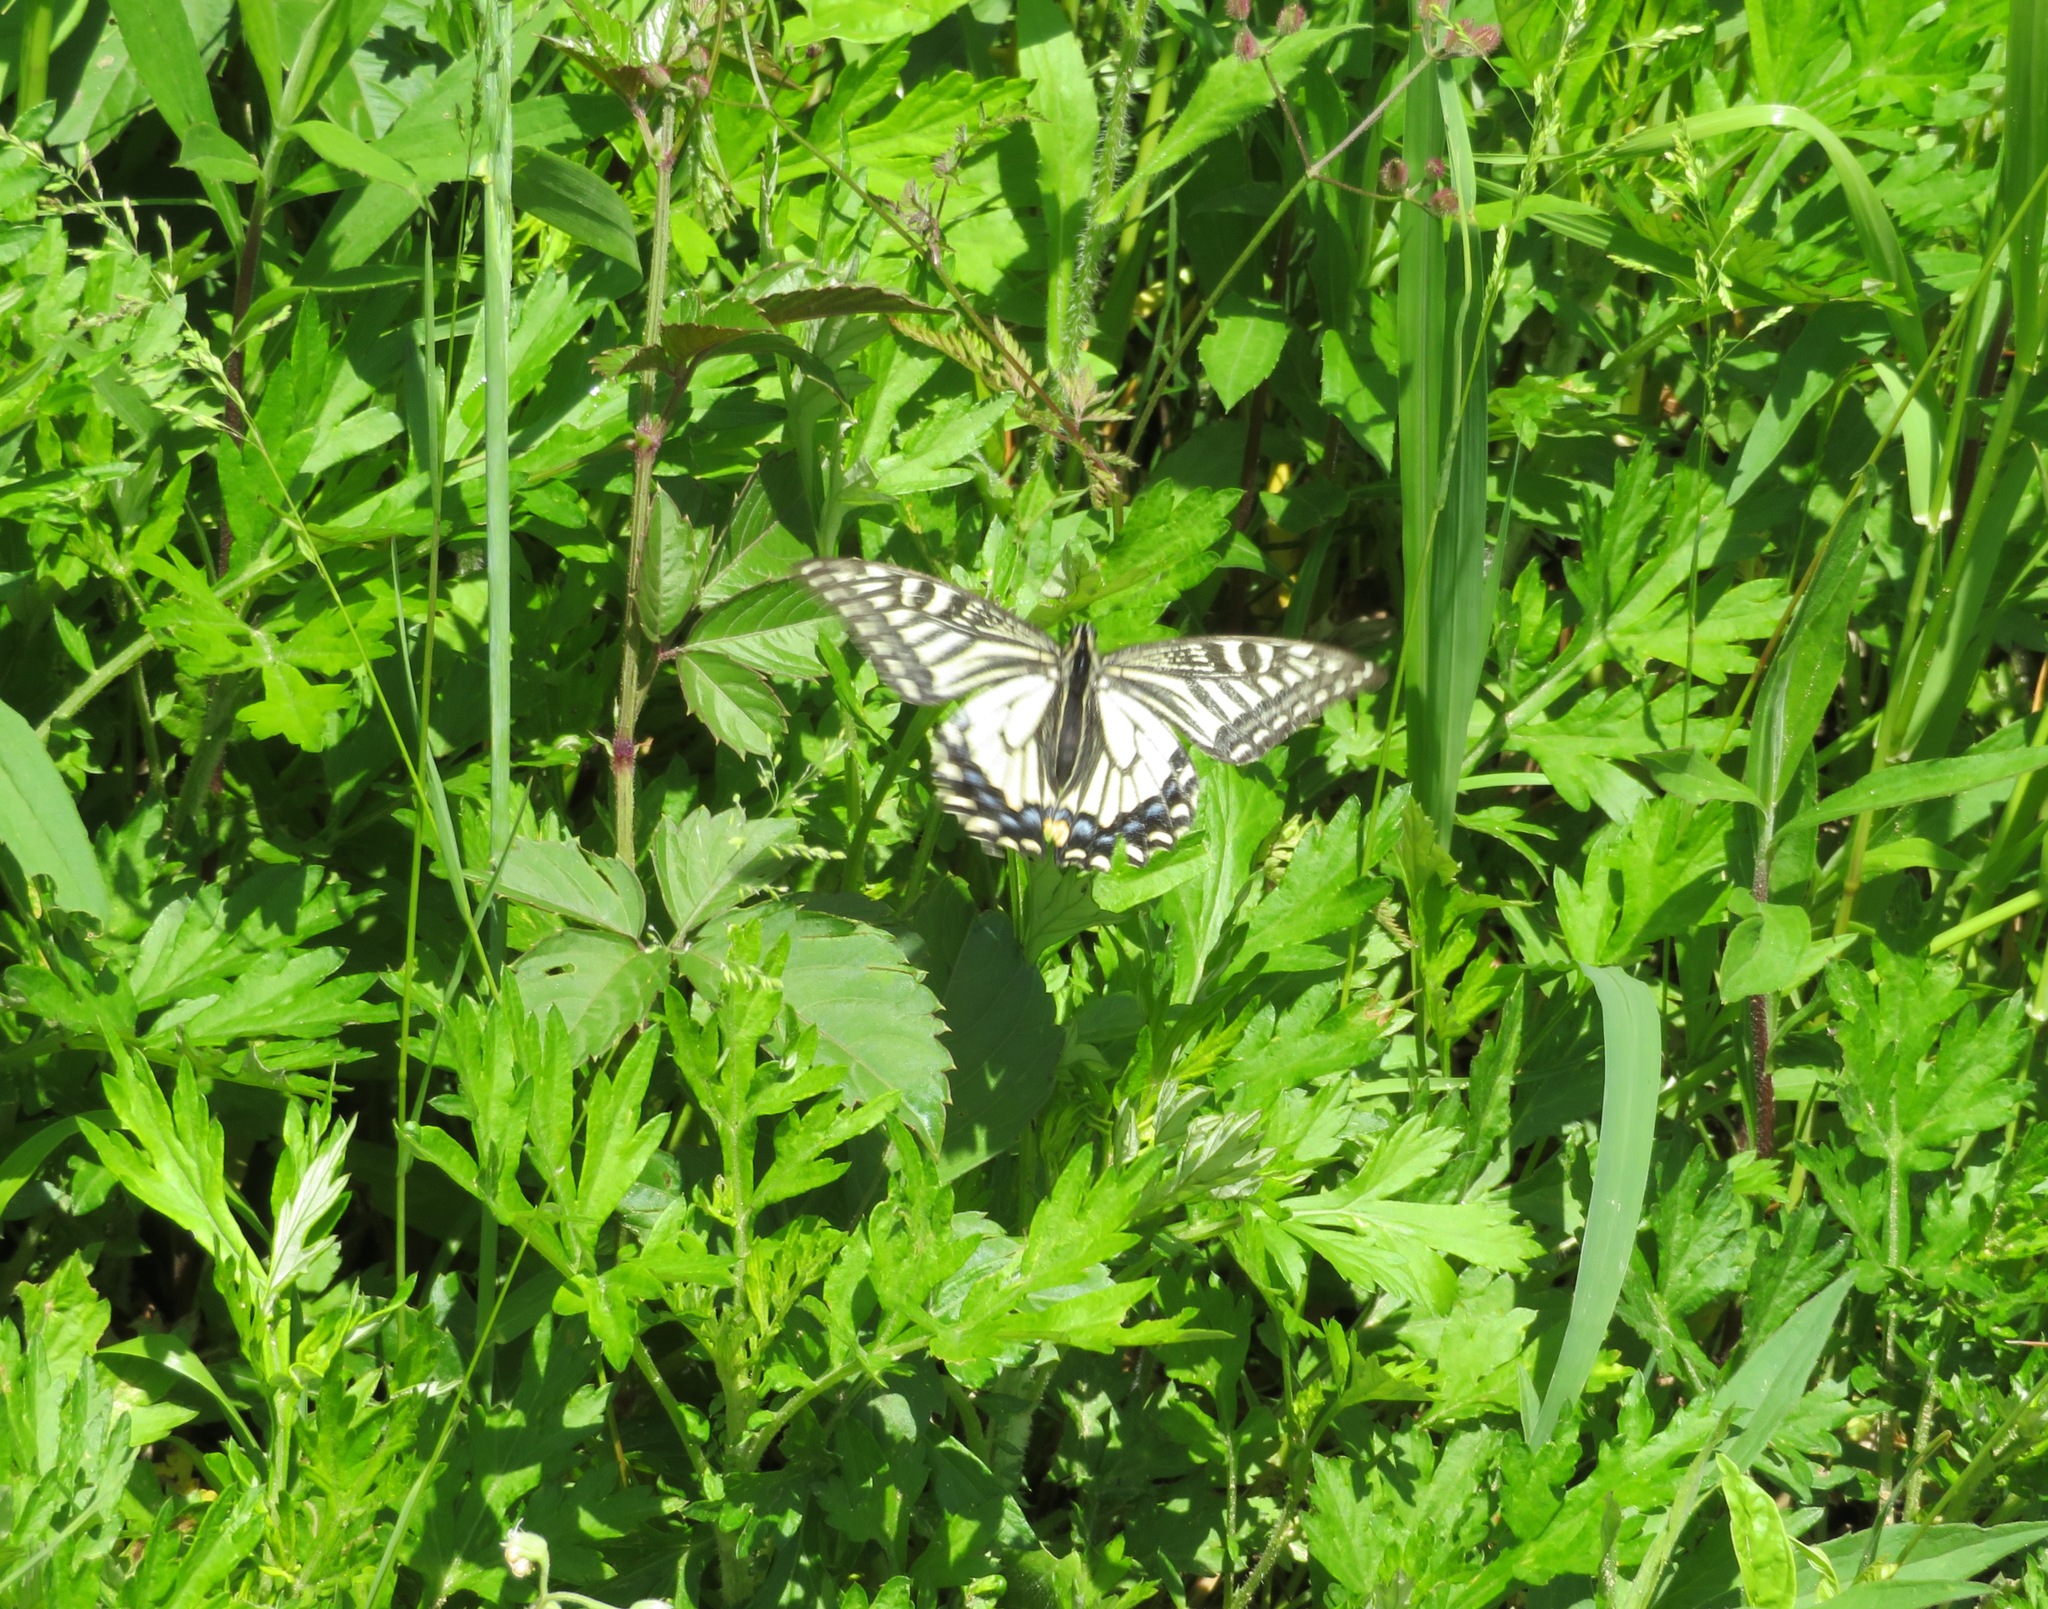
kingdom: Animalia
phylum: Arthropoda
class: Insecta
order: Lepidoptera
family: Papilionidae
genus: Papilio
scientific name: Papilio xuthus
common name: Asian swallowtail
